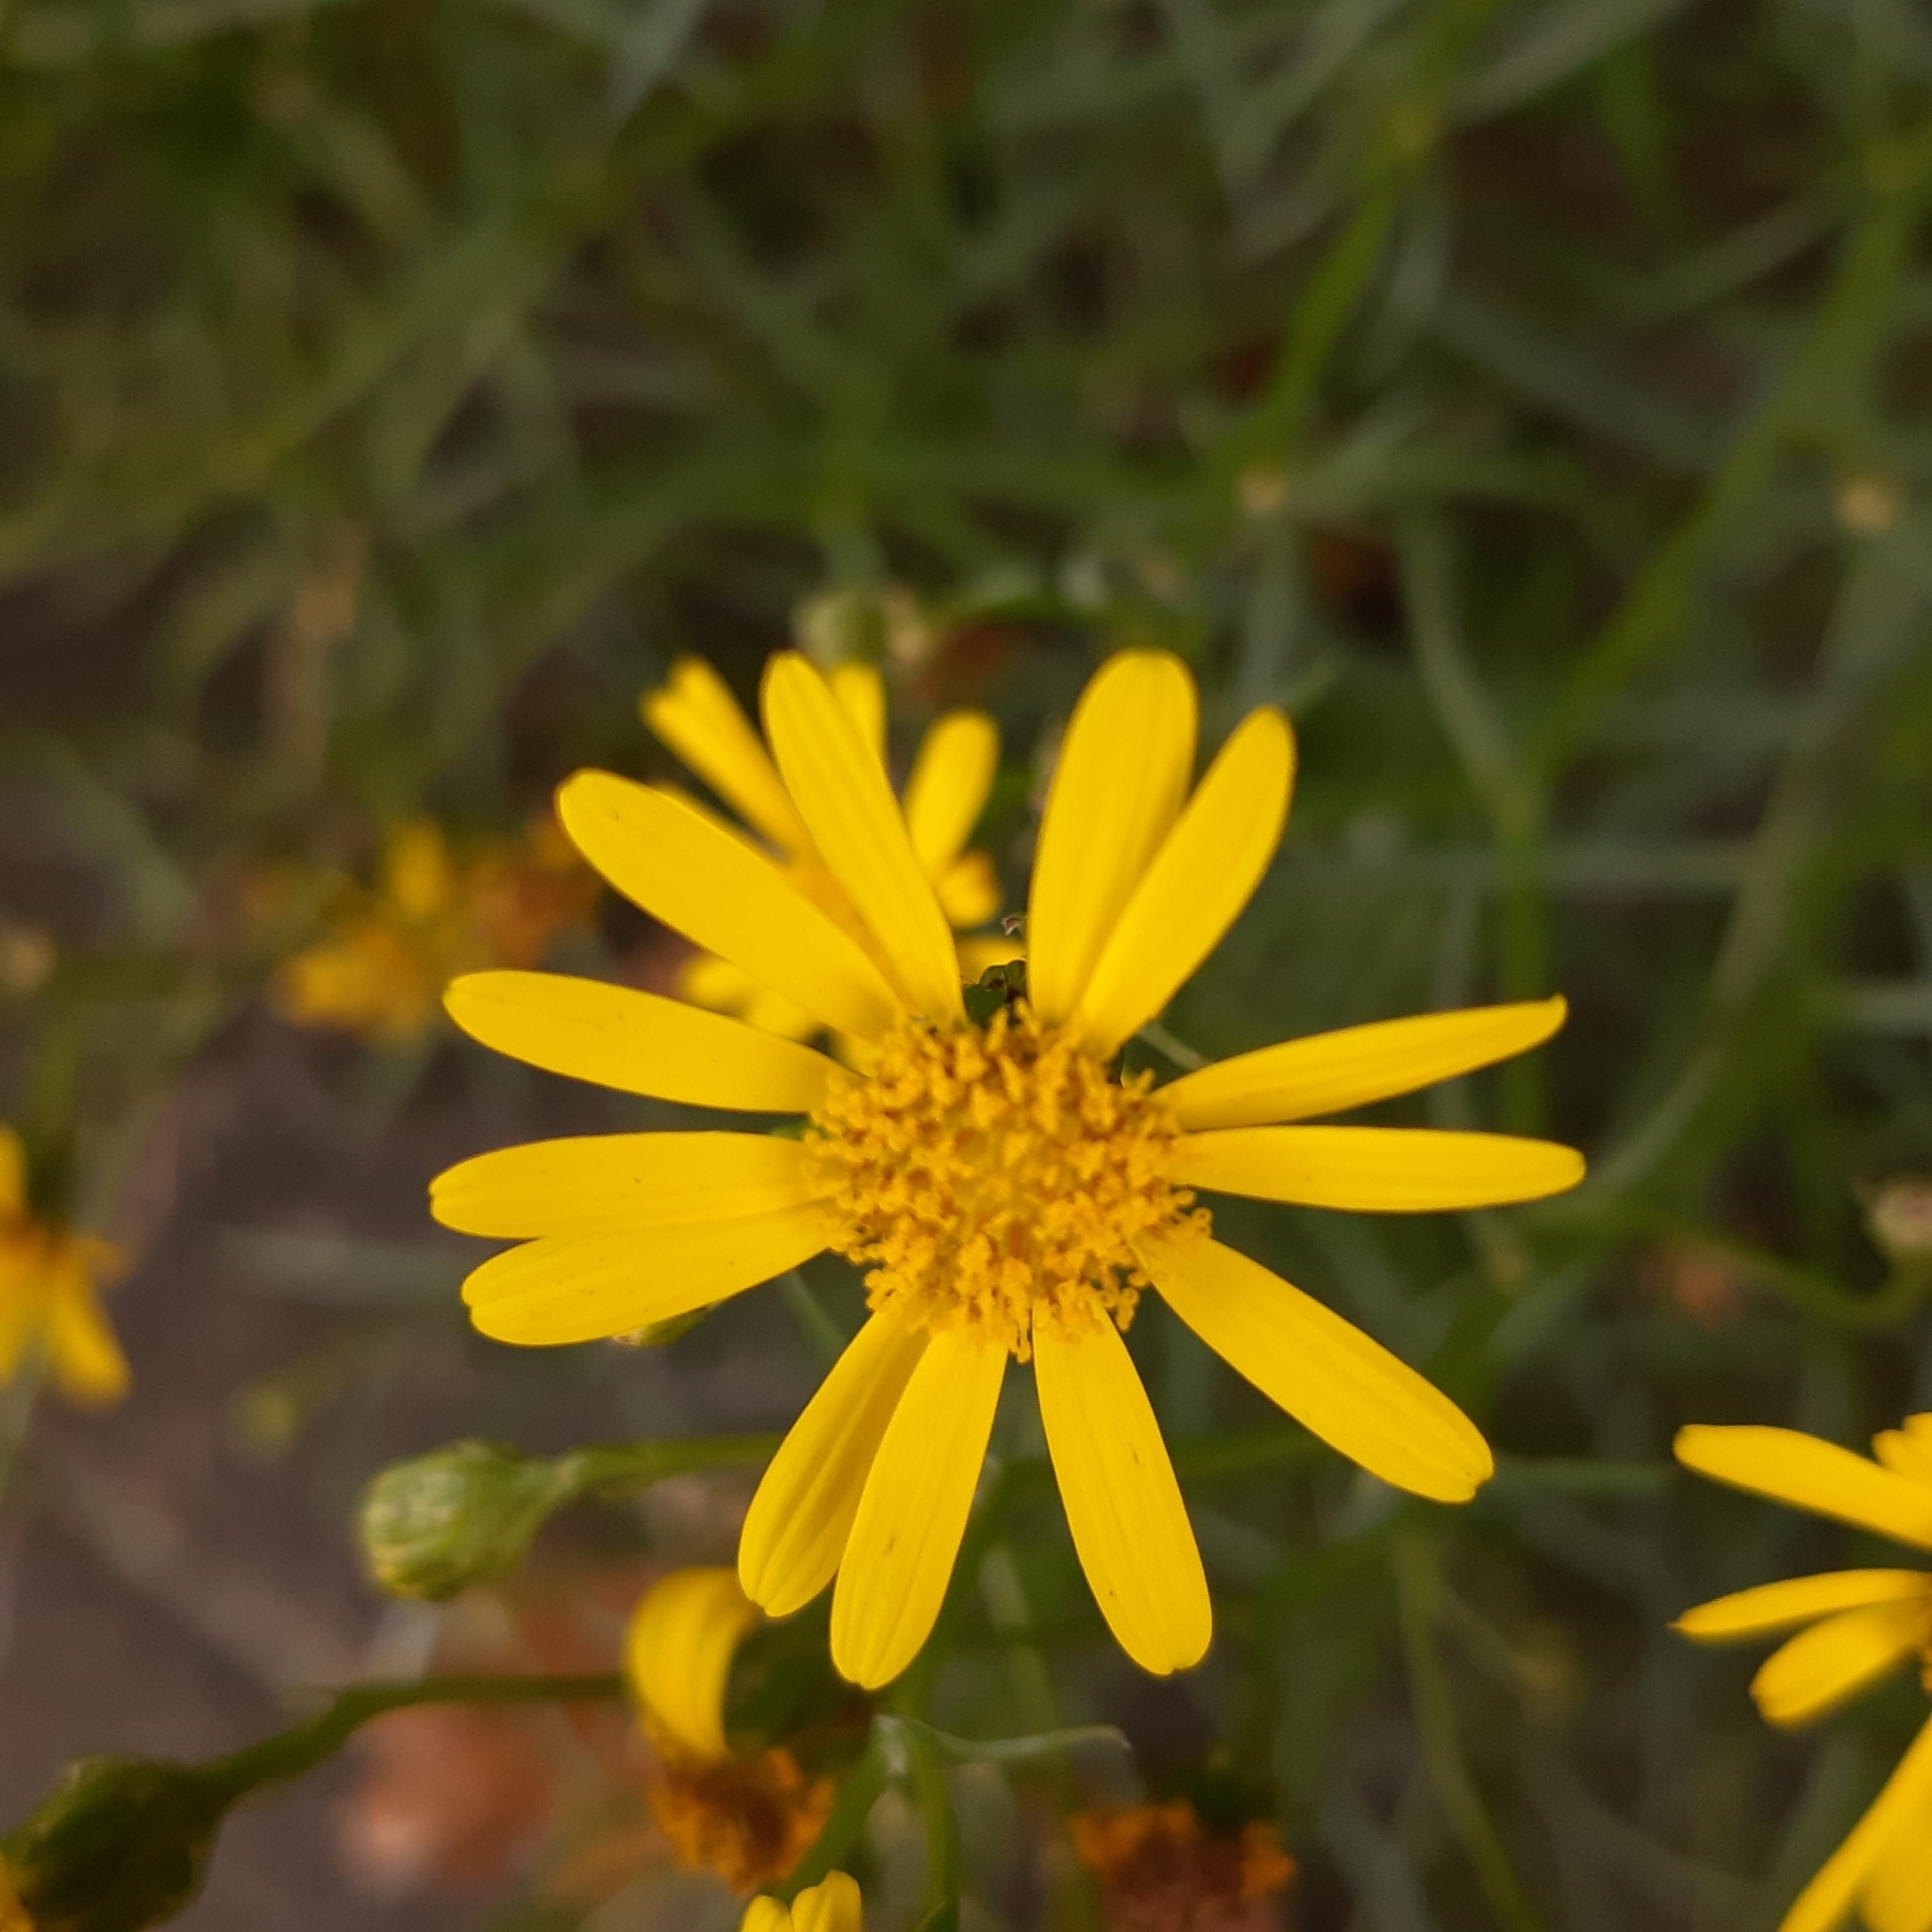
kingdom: Plantae
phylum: Tracheophyta
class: Magnoliopsida
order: Asterales
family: Asteraceae
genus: Senecio
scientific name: Senecio inaequidens
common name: Narrow-leaved ragwort
